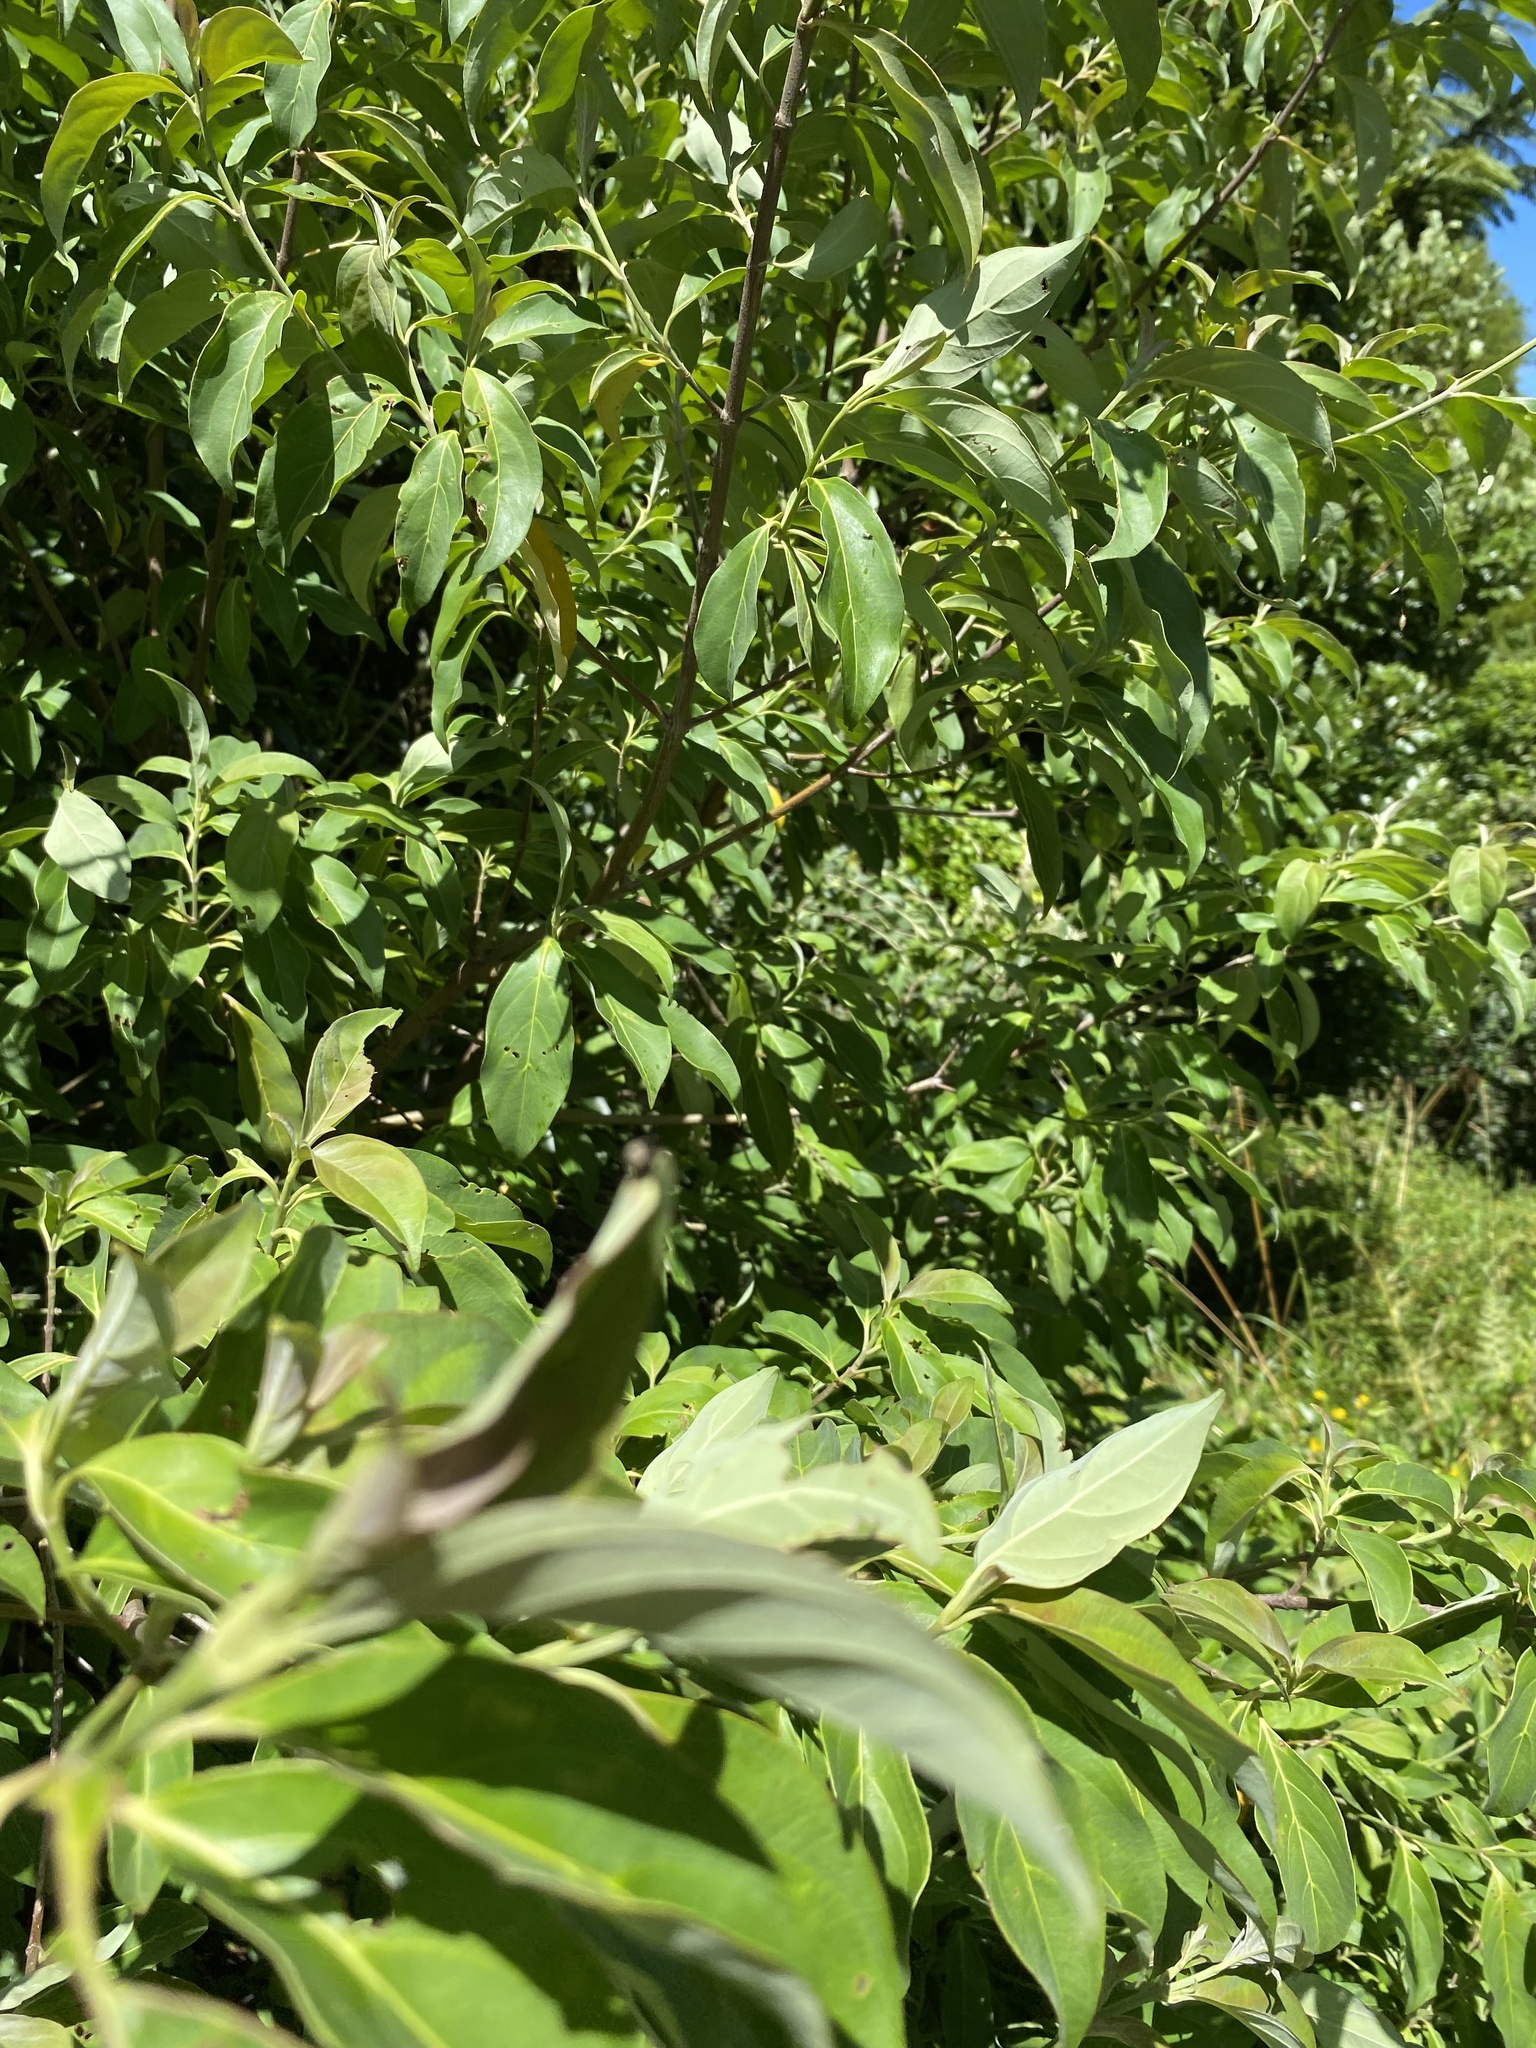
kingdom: Plantae
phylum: Tracheophyta
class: Magnoliopsida
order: Cornales
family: Cornaceae
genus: Cornus
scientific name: Cornus capitata
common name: Bentham's cornel
